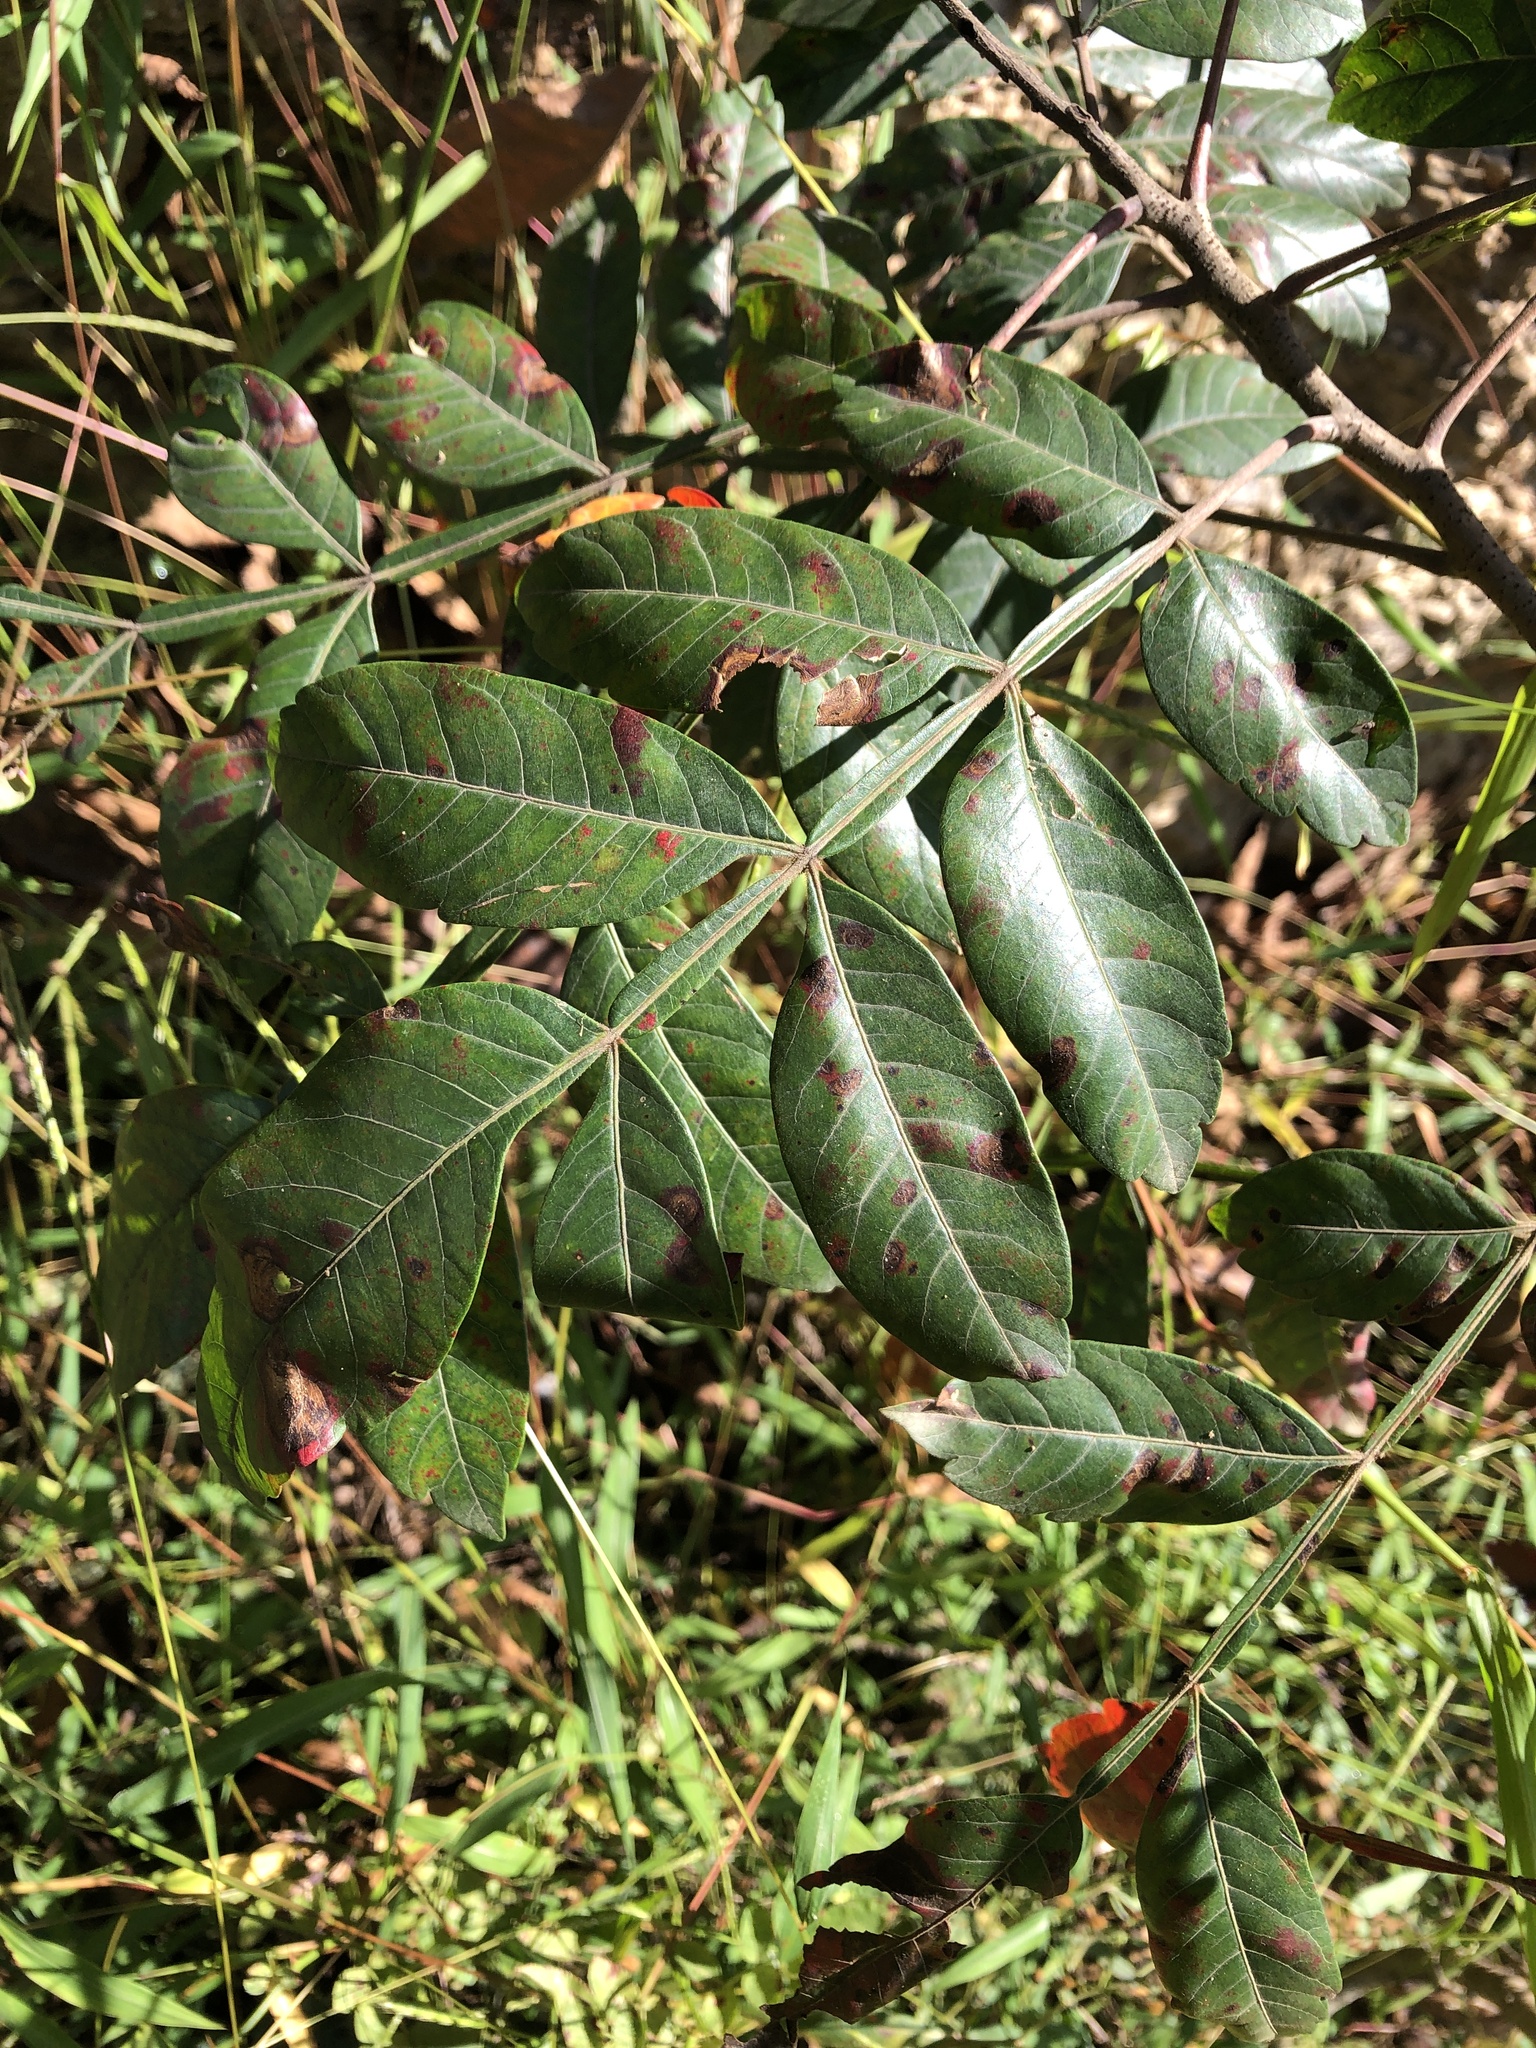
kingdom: Plantae
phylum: Tracheophyta
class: Magnoliopsida
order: Sapindales
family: Anacardiaceae
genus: Rhus
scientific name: Rhus copallina
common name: Shining sumac
